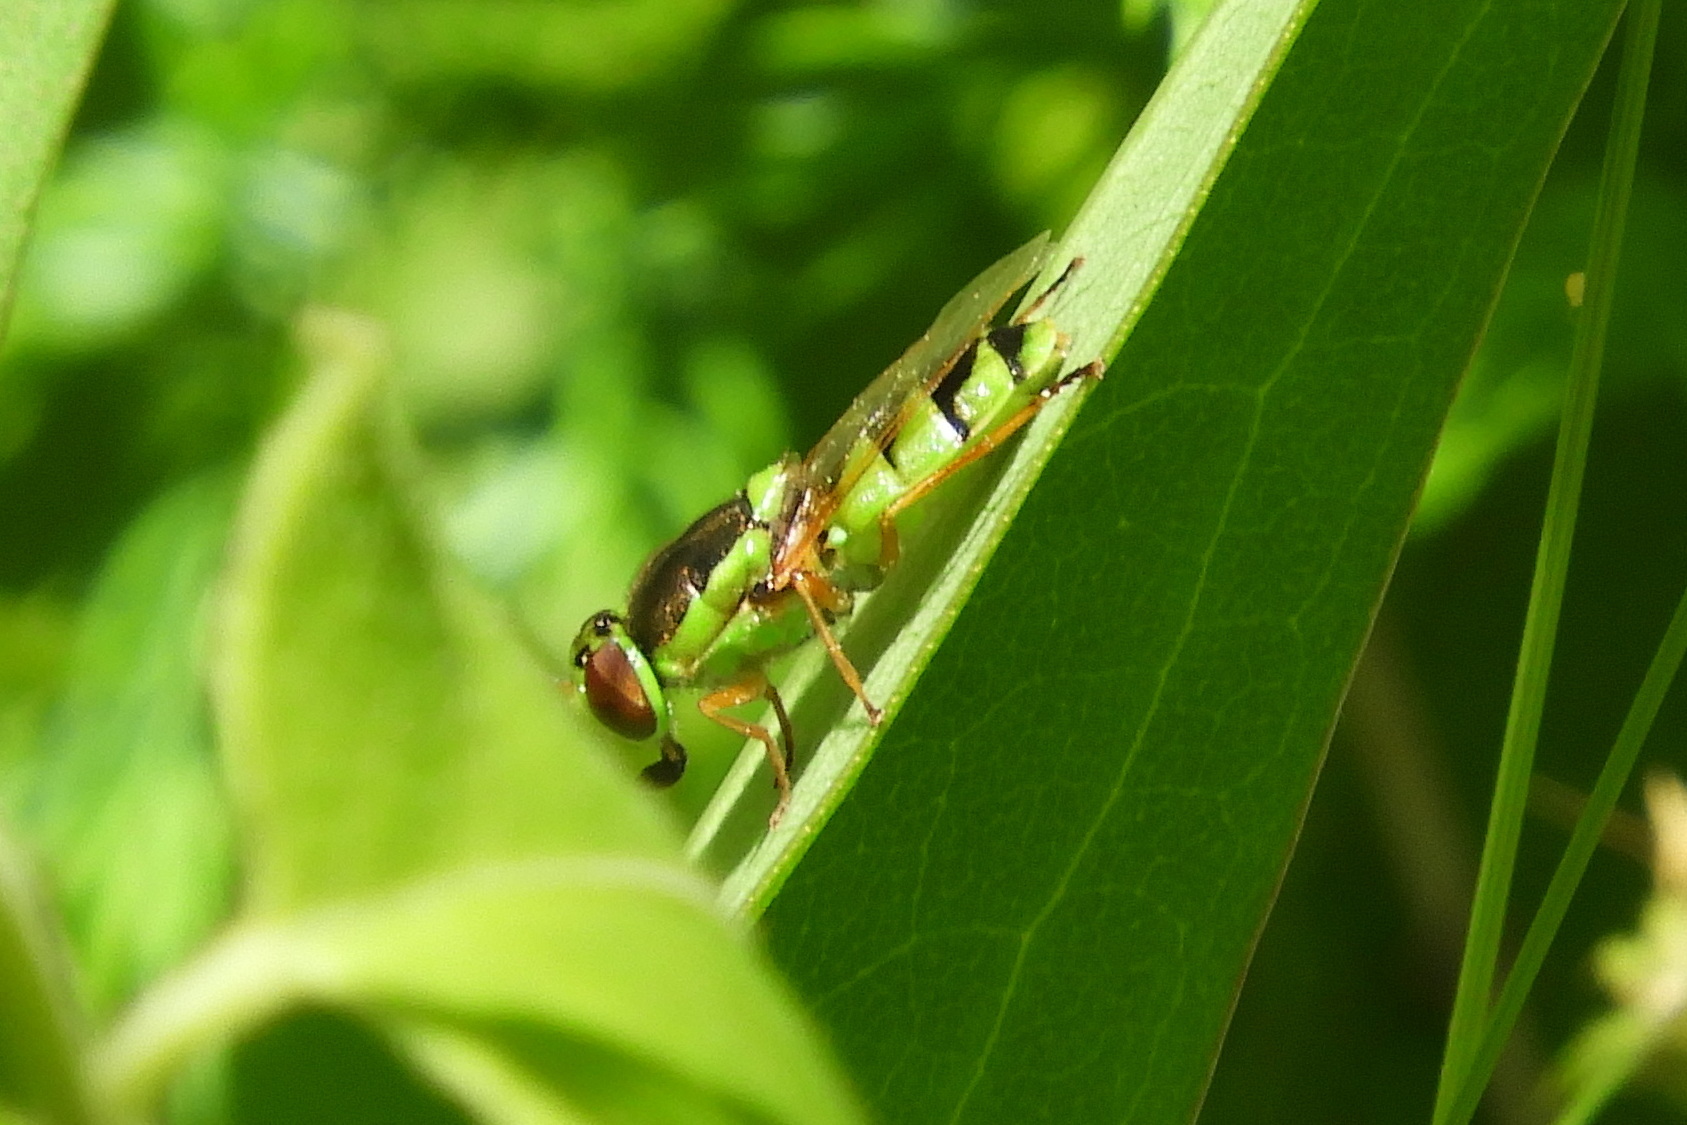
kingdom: Animalia
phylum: Arthropoda
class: Insecta
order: Diptera
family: Stratiomyidae
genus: Odontomyia
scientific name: Odontomyia cincta
